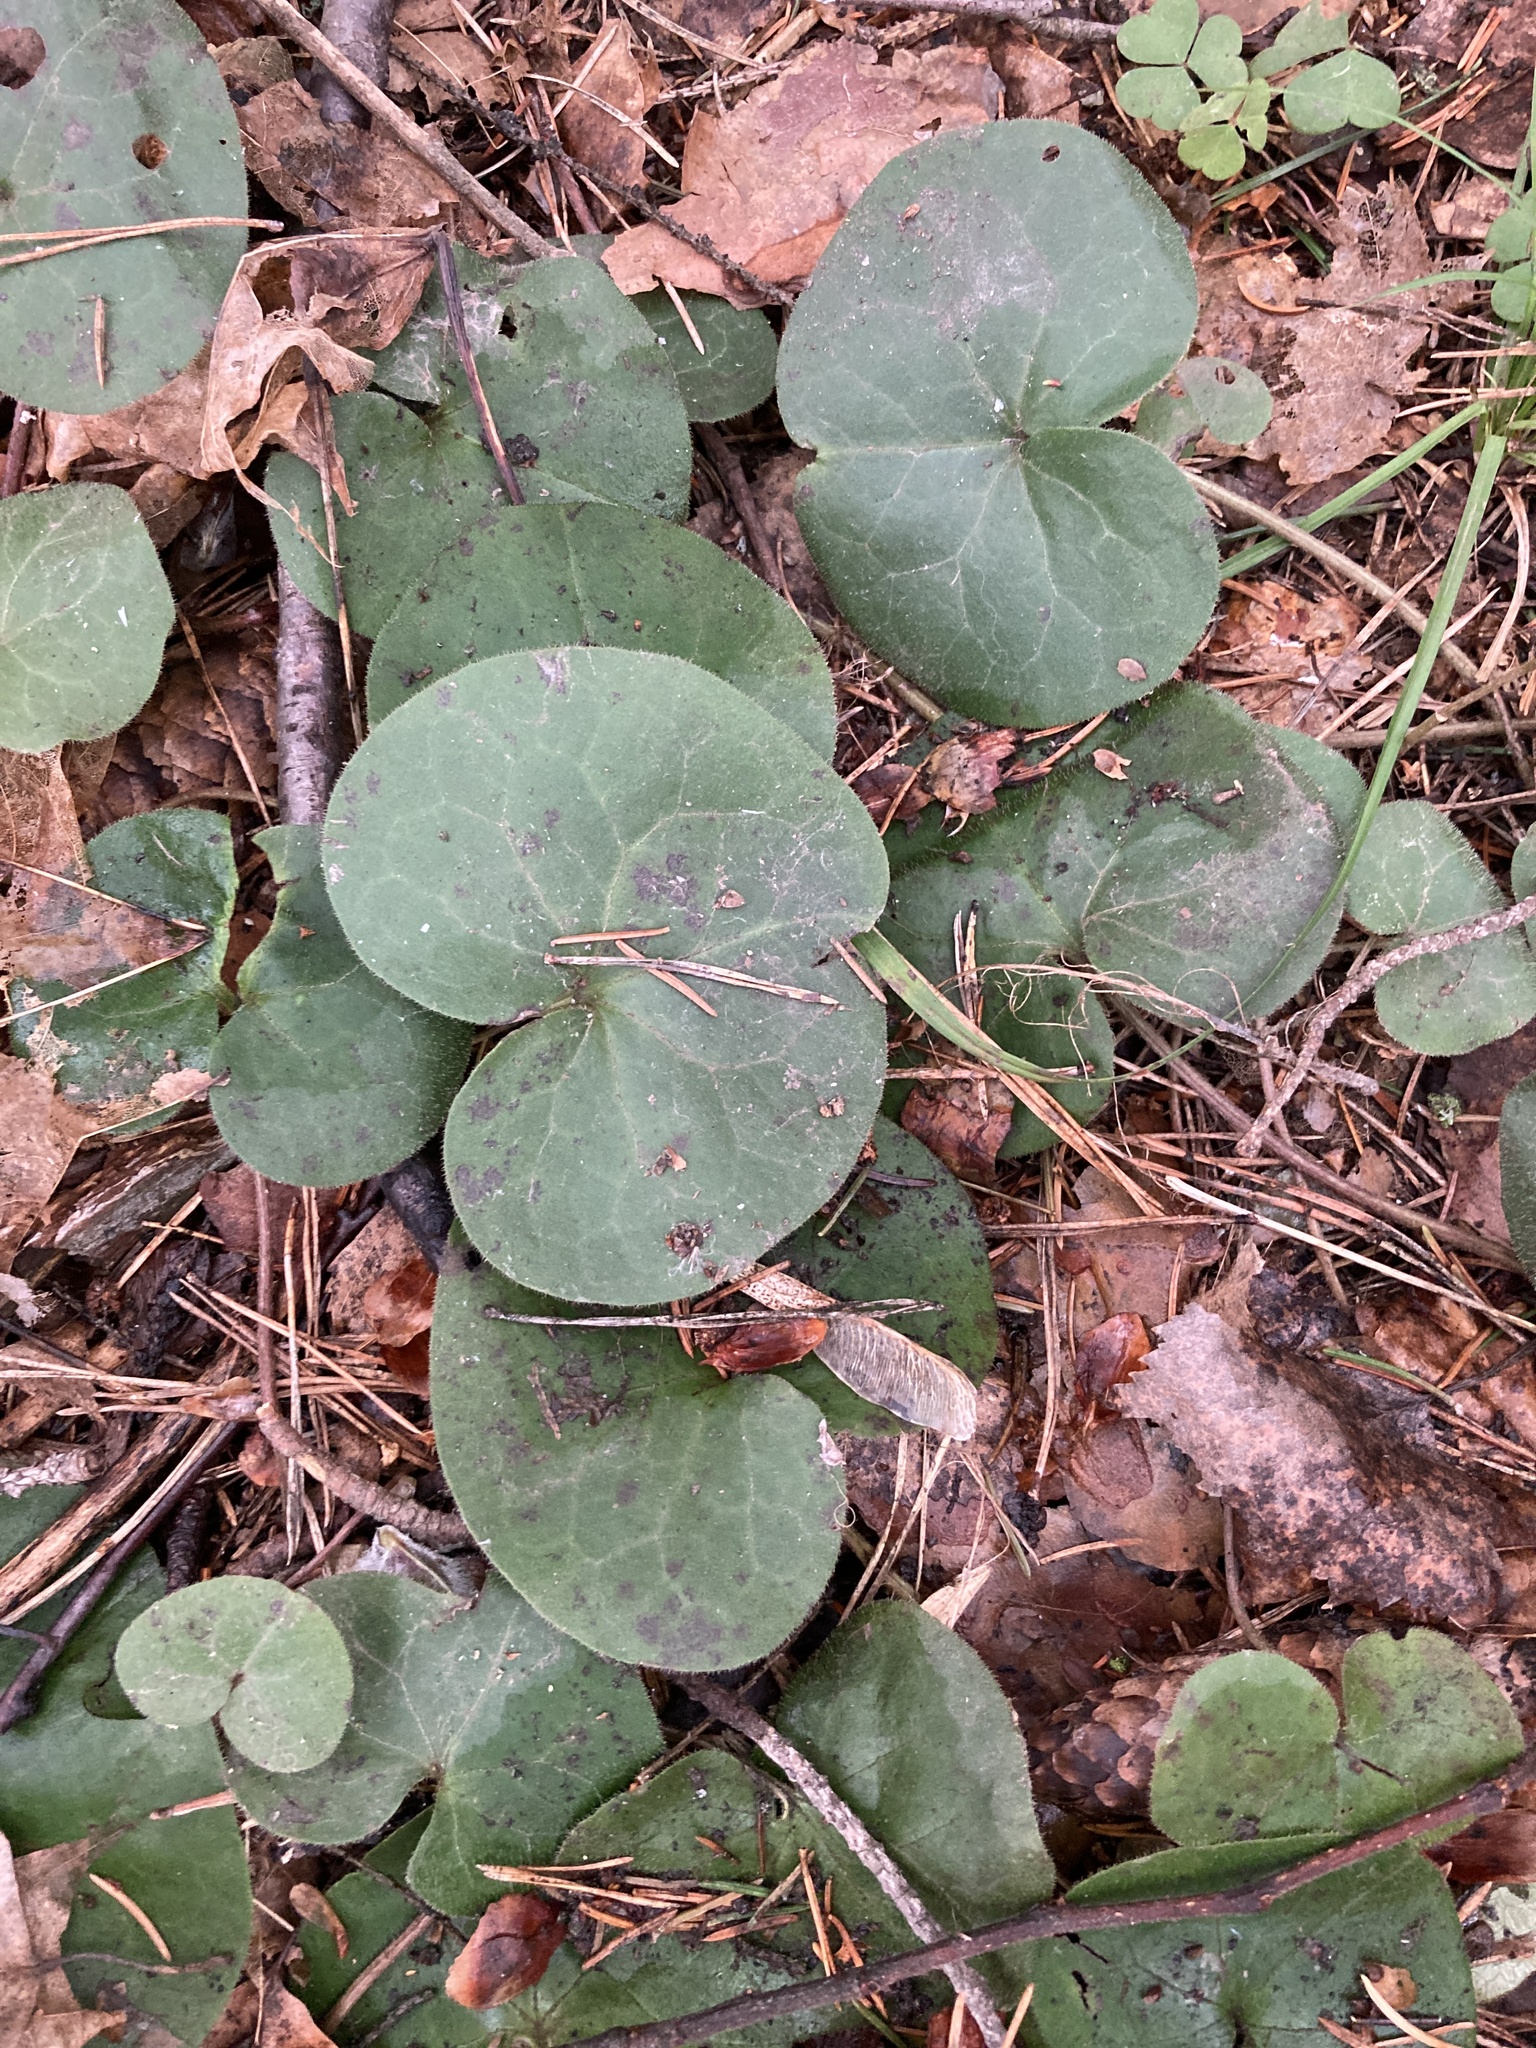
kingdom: Plantae
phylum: Tracheophyta
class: Magnoliopsida
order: Piperales
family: Aristolochiaceae
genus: Asarum
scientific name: Asarum europaeum
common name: Asarabacca
